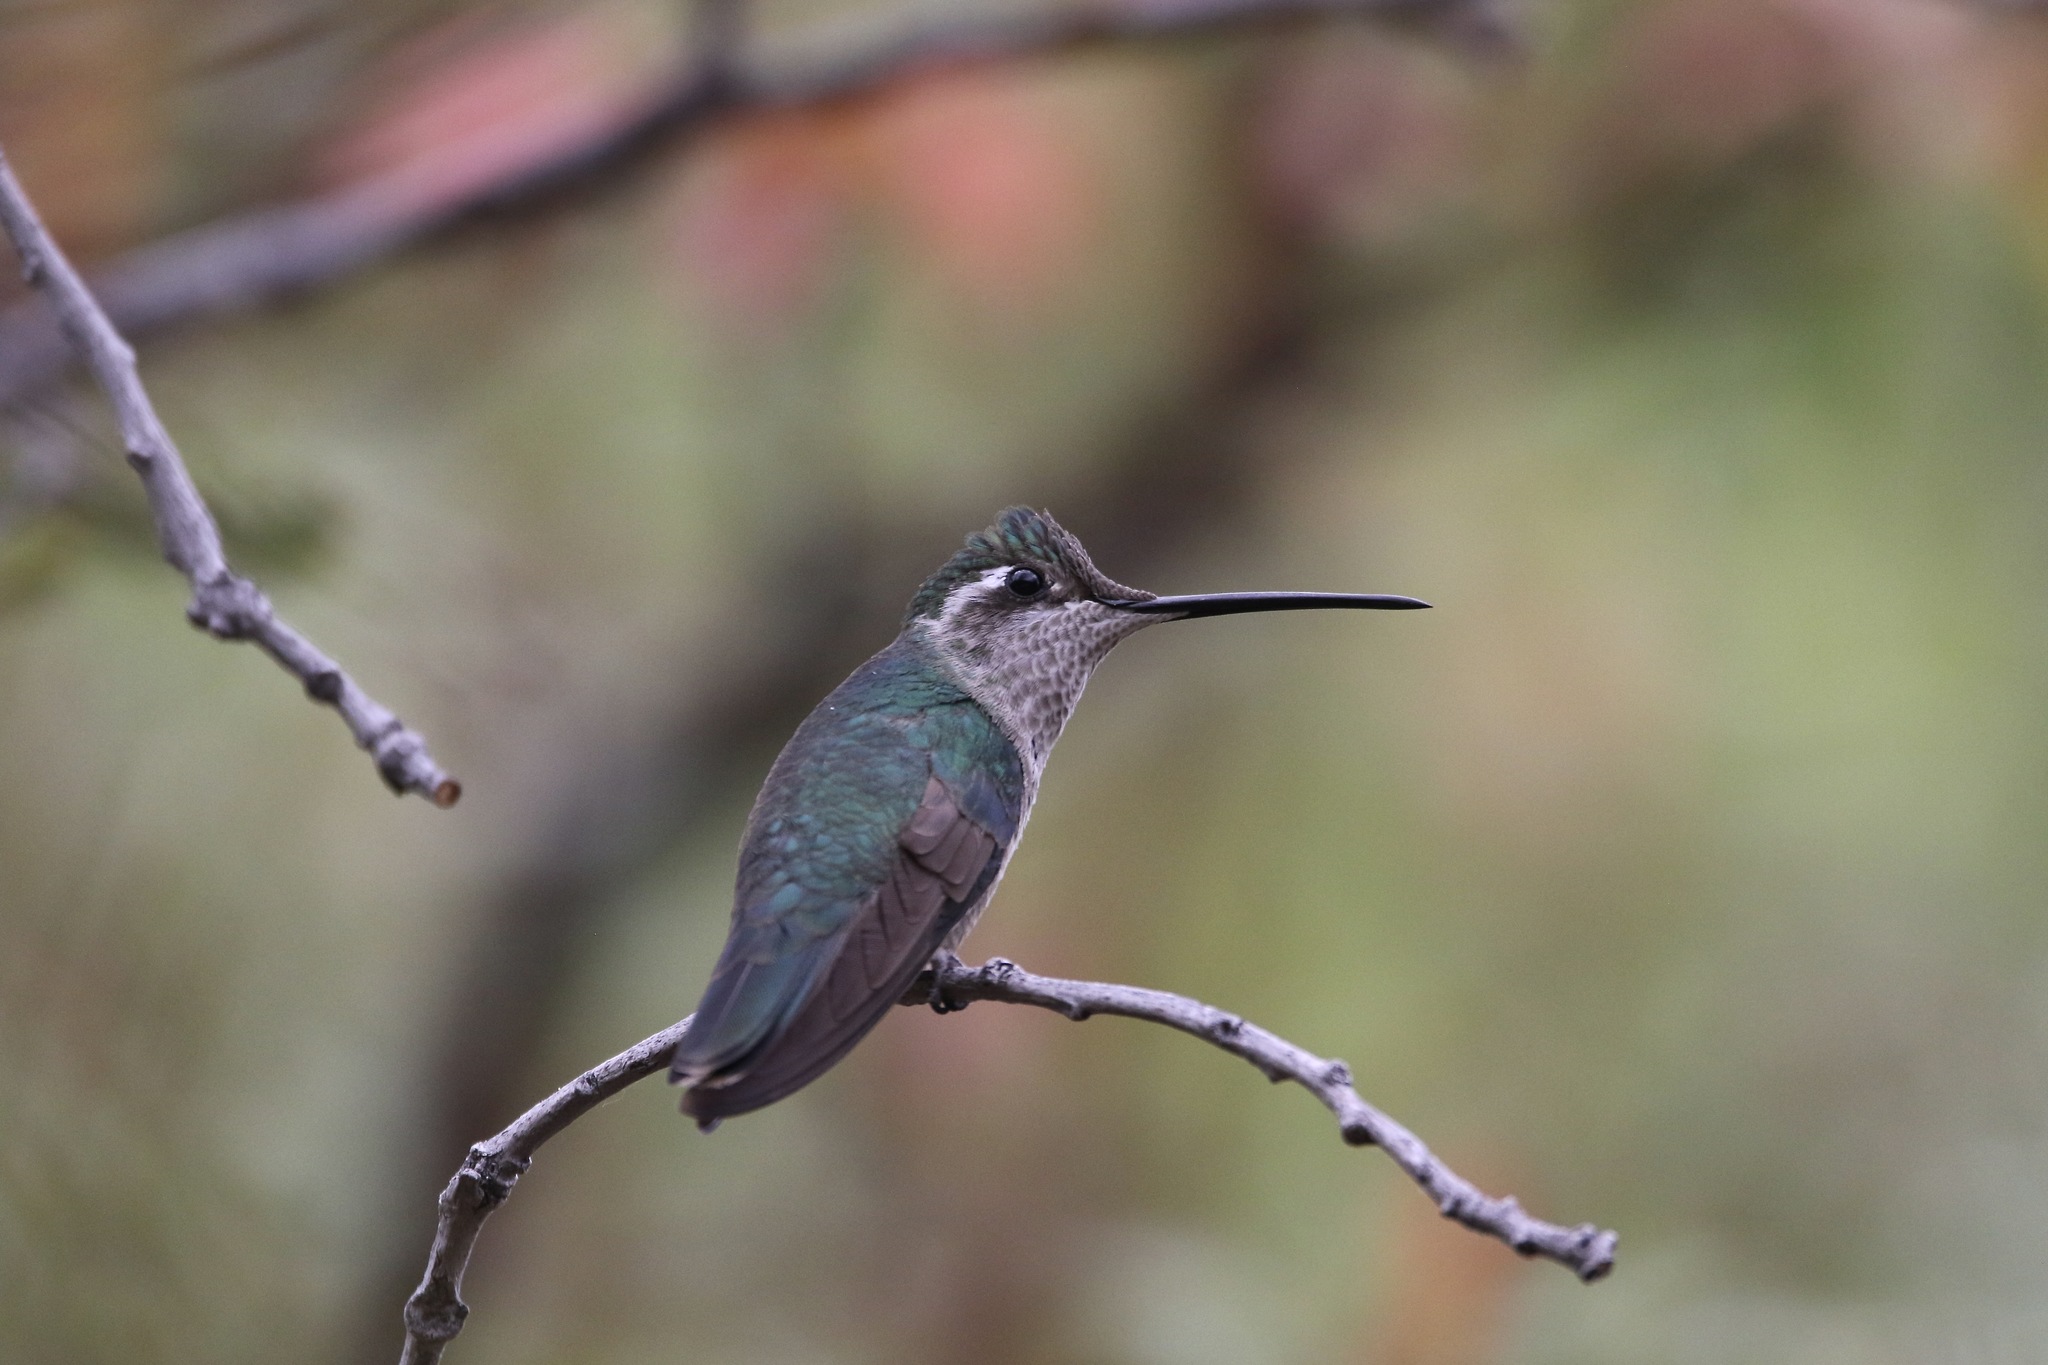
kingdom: Animalia
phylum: Chordata
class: Aves
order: Apodiformes
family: Trochilidae
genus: Eugenes
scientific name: Eugenes fulgens
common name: Magnificent hummingbird
